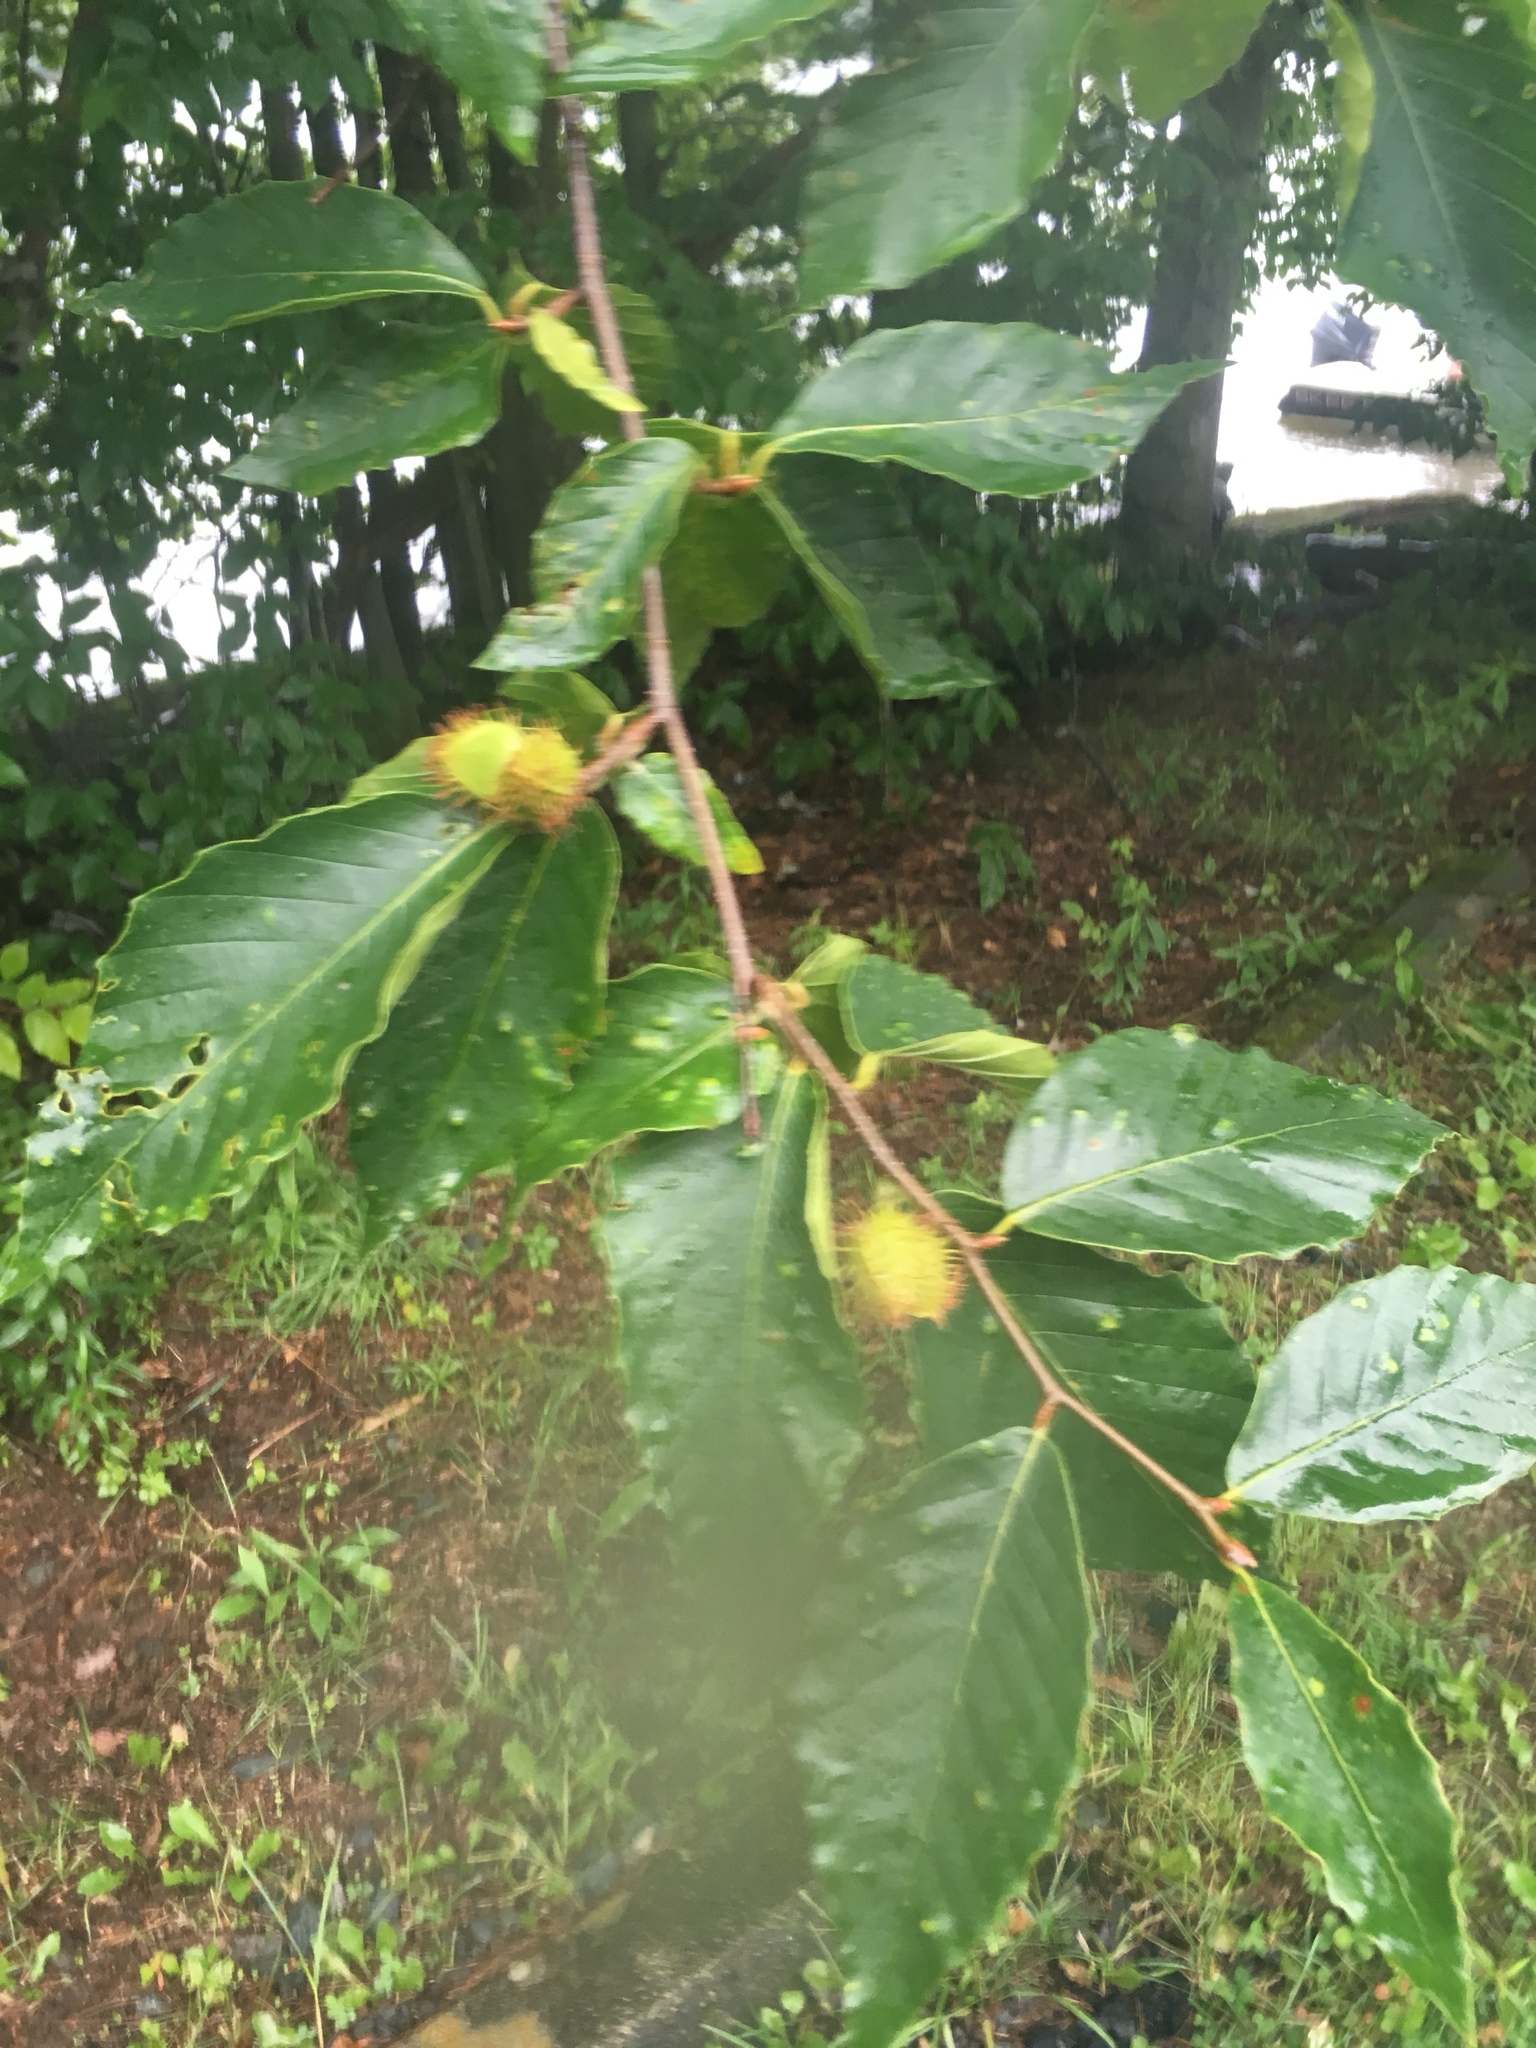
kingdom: Plantae
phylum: Tracheophyta
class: Magnoliopsida
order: Fagales
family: Fagaceae
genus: Fagus
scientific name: Fagus grandifolia
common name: American beech
